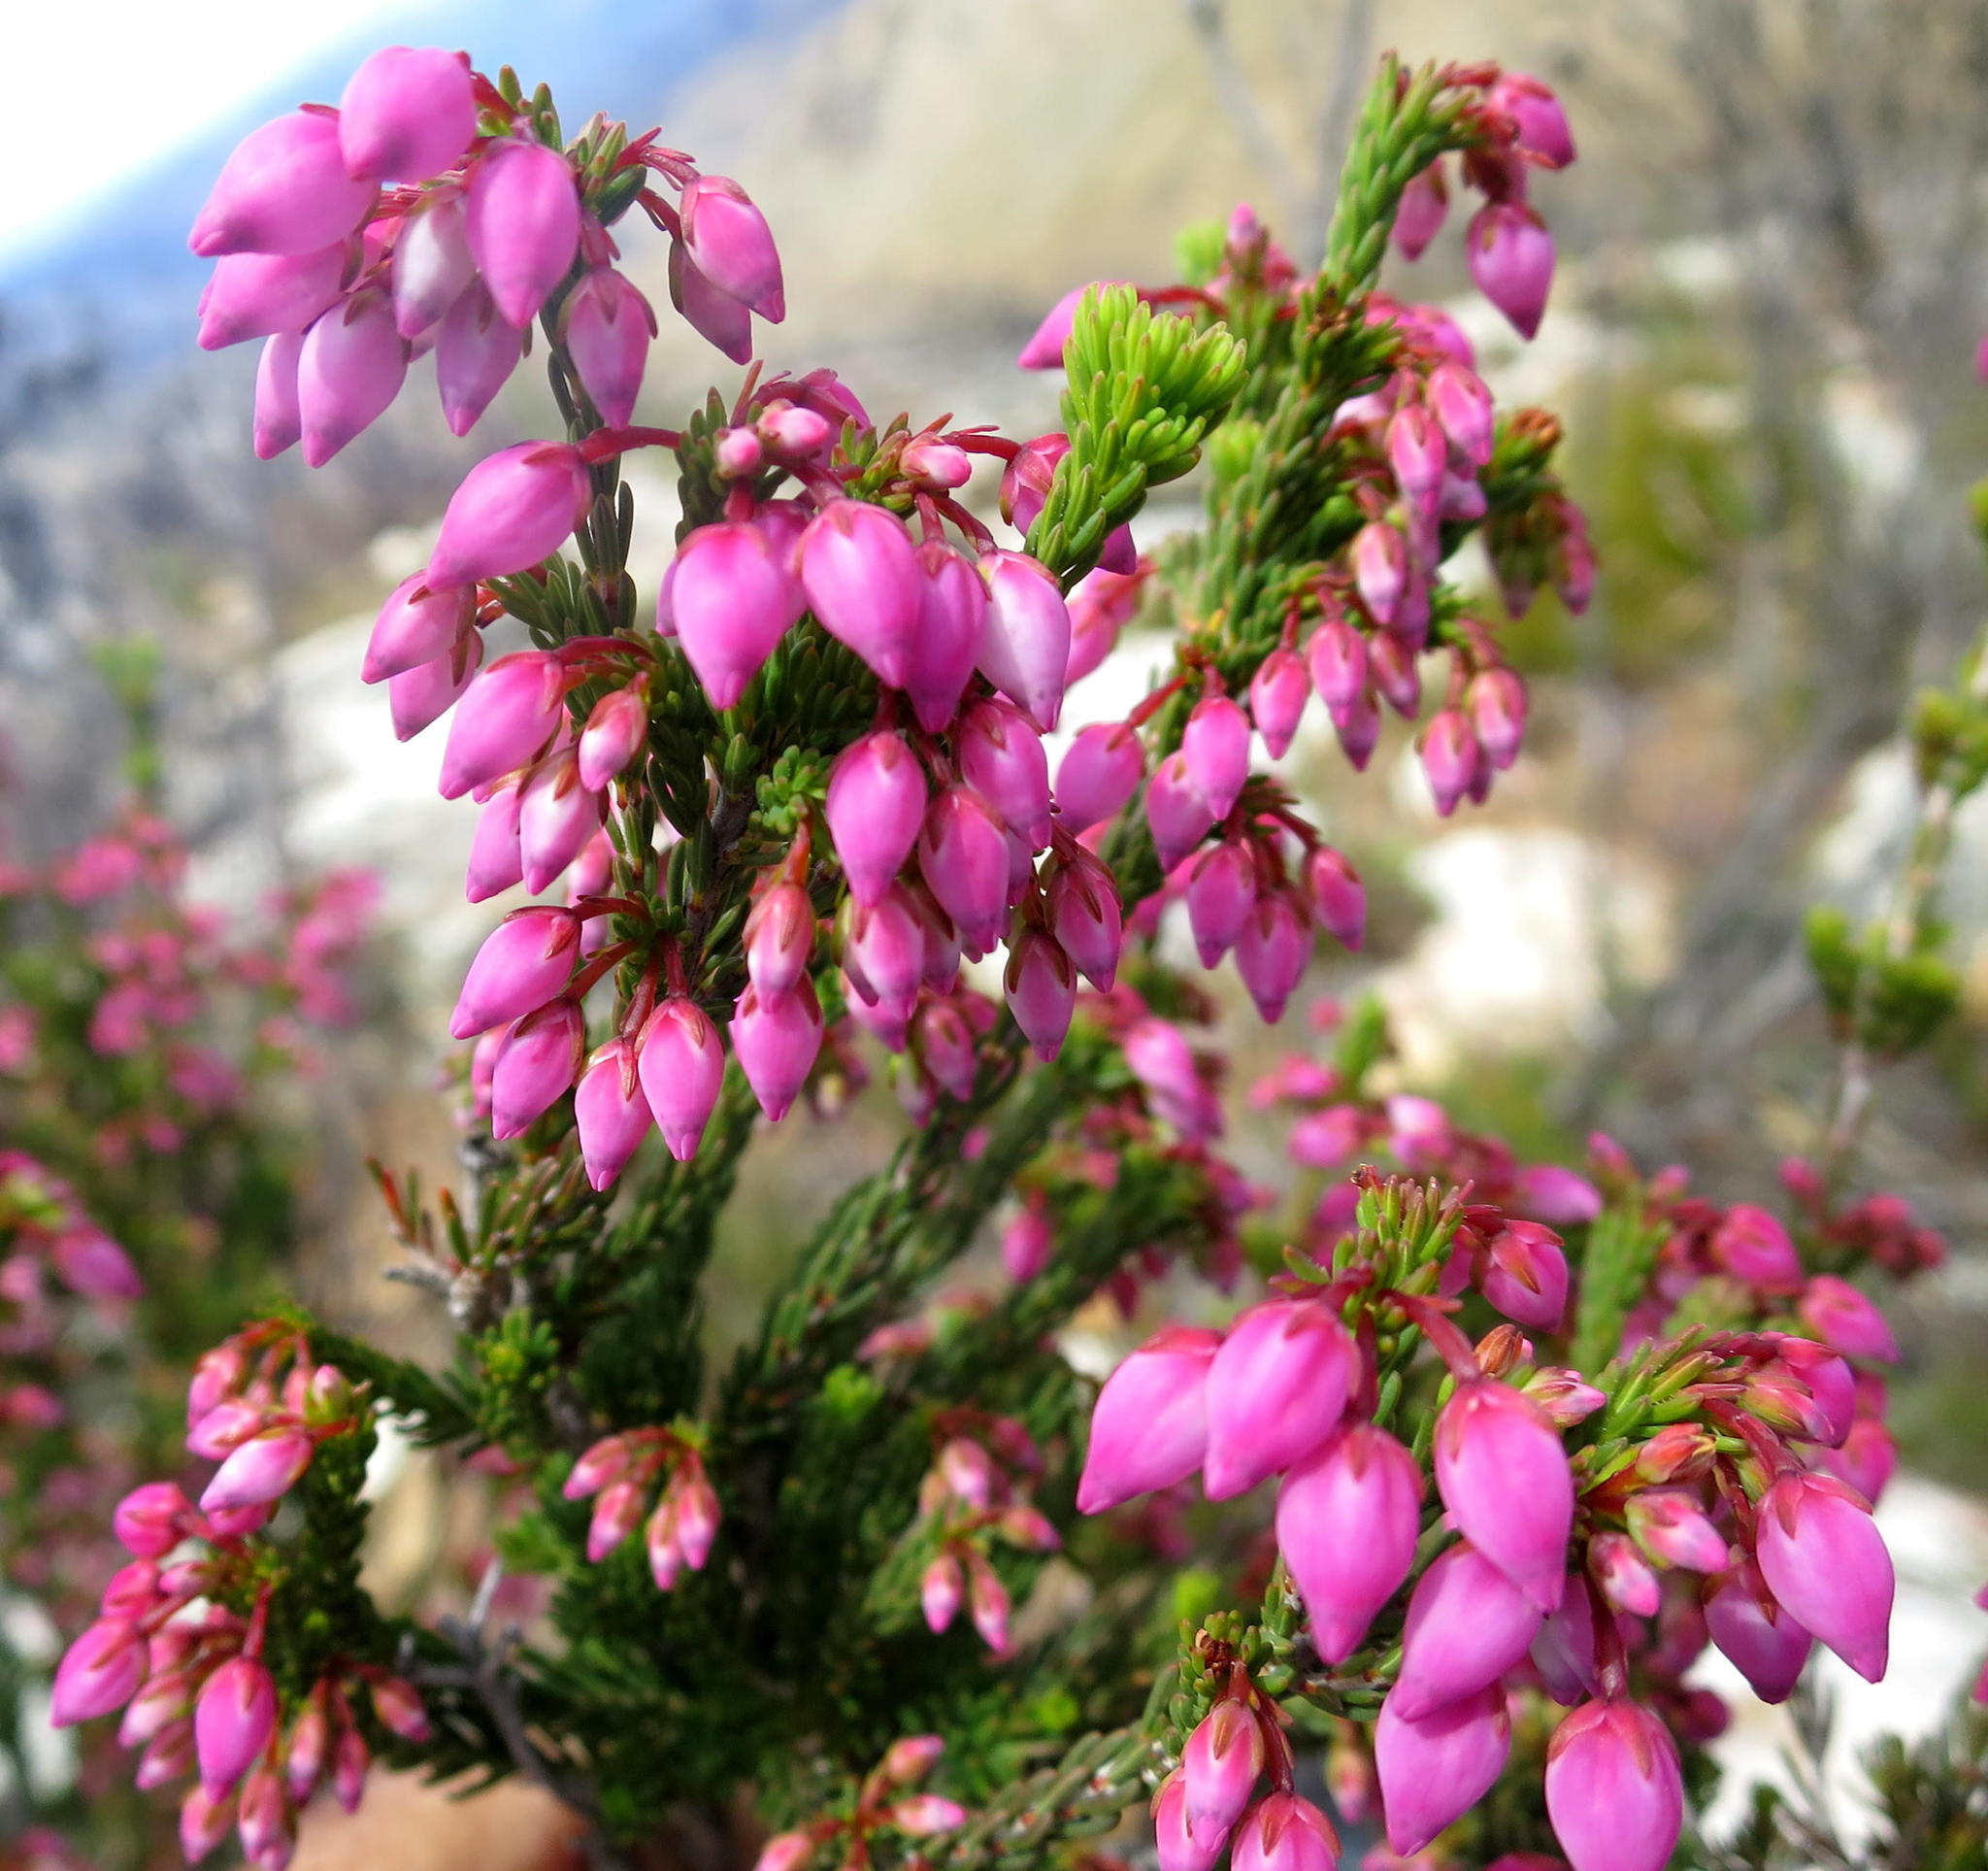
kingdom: Plantae
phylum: Tracheophyta
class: Magnoliopsida
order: Ericales
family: Ericaceae
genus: Erica
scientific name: Erica toringbergensis
